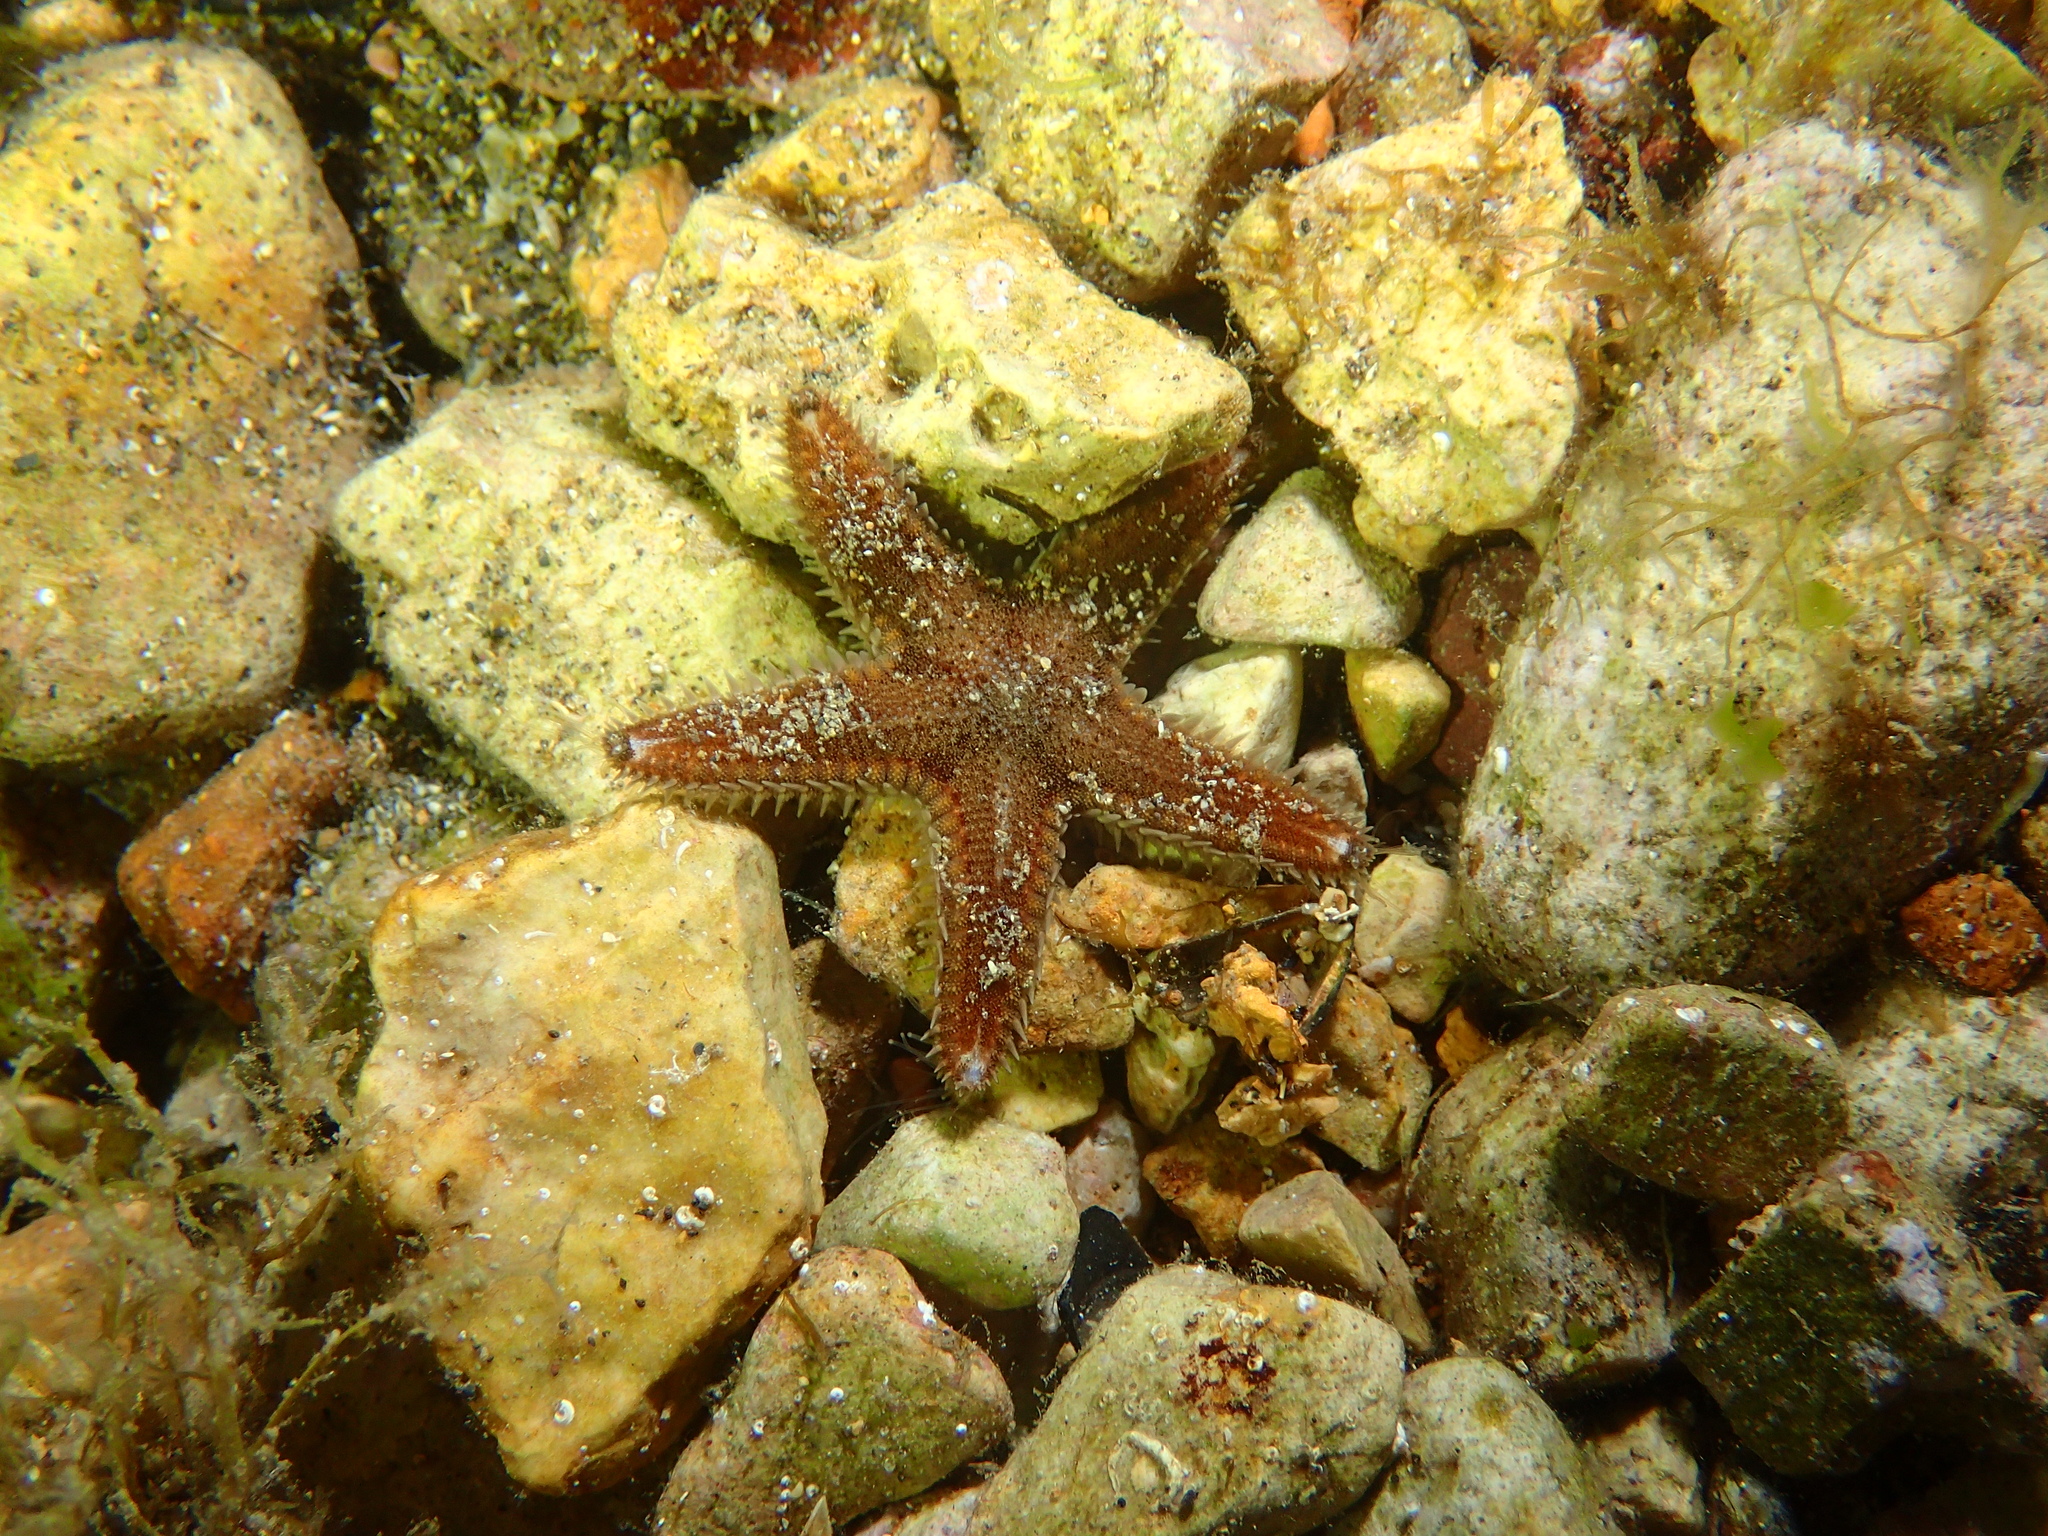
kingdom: Animalia
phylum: Echinodermata
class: Asteroidea
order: Paxillosida
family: Astropectinidae
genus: Astropecten
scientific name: Astropecten spinulosus
